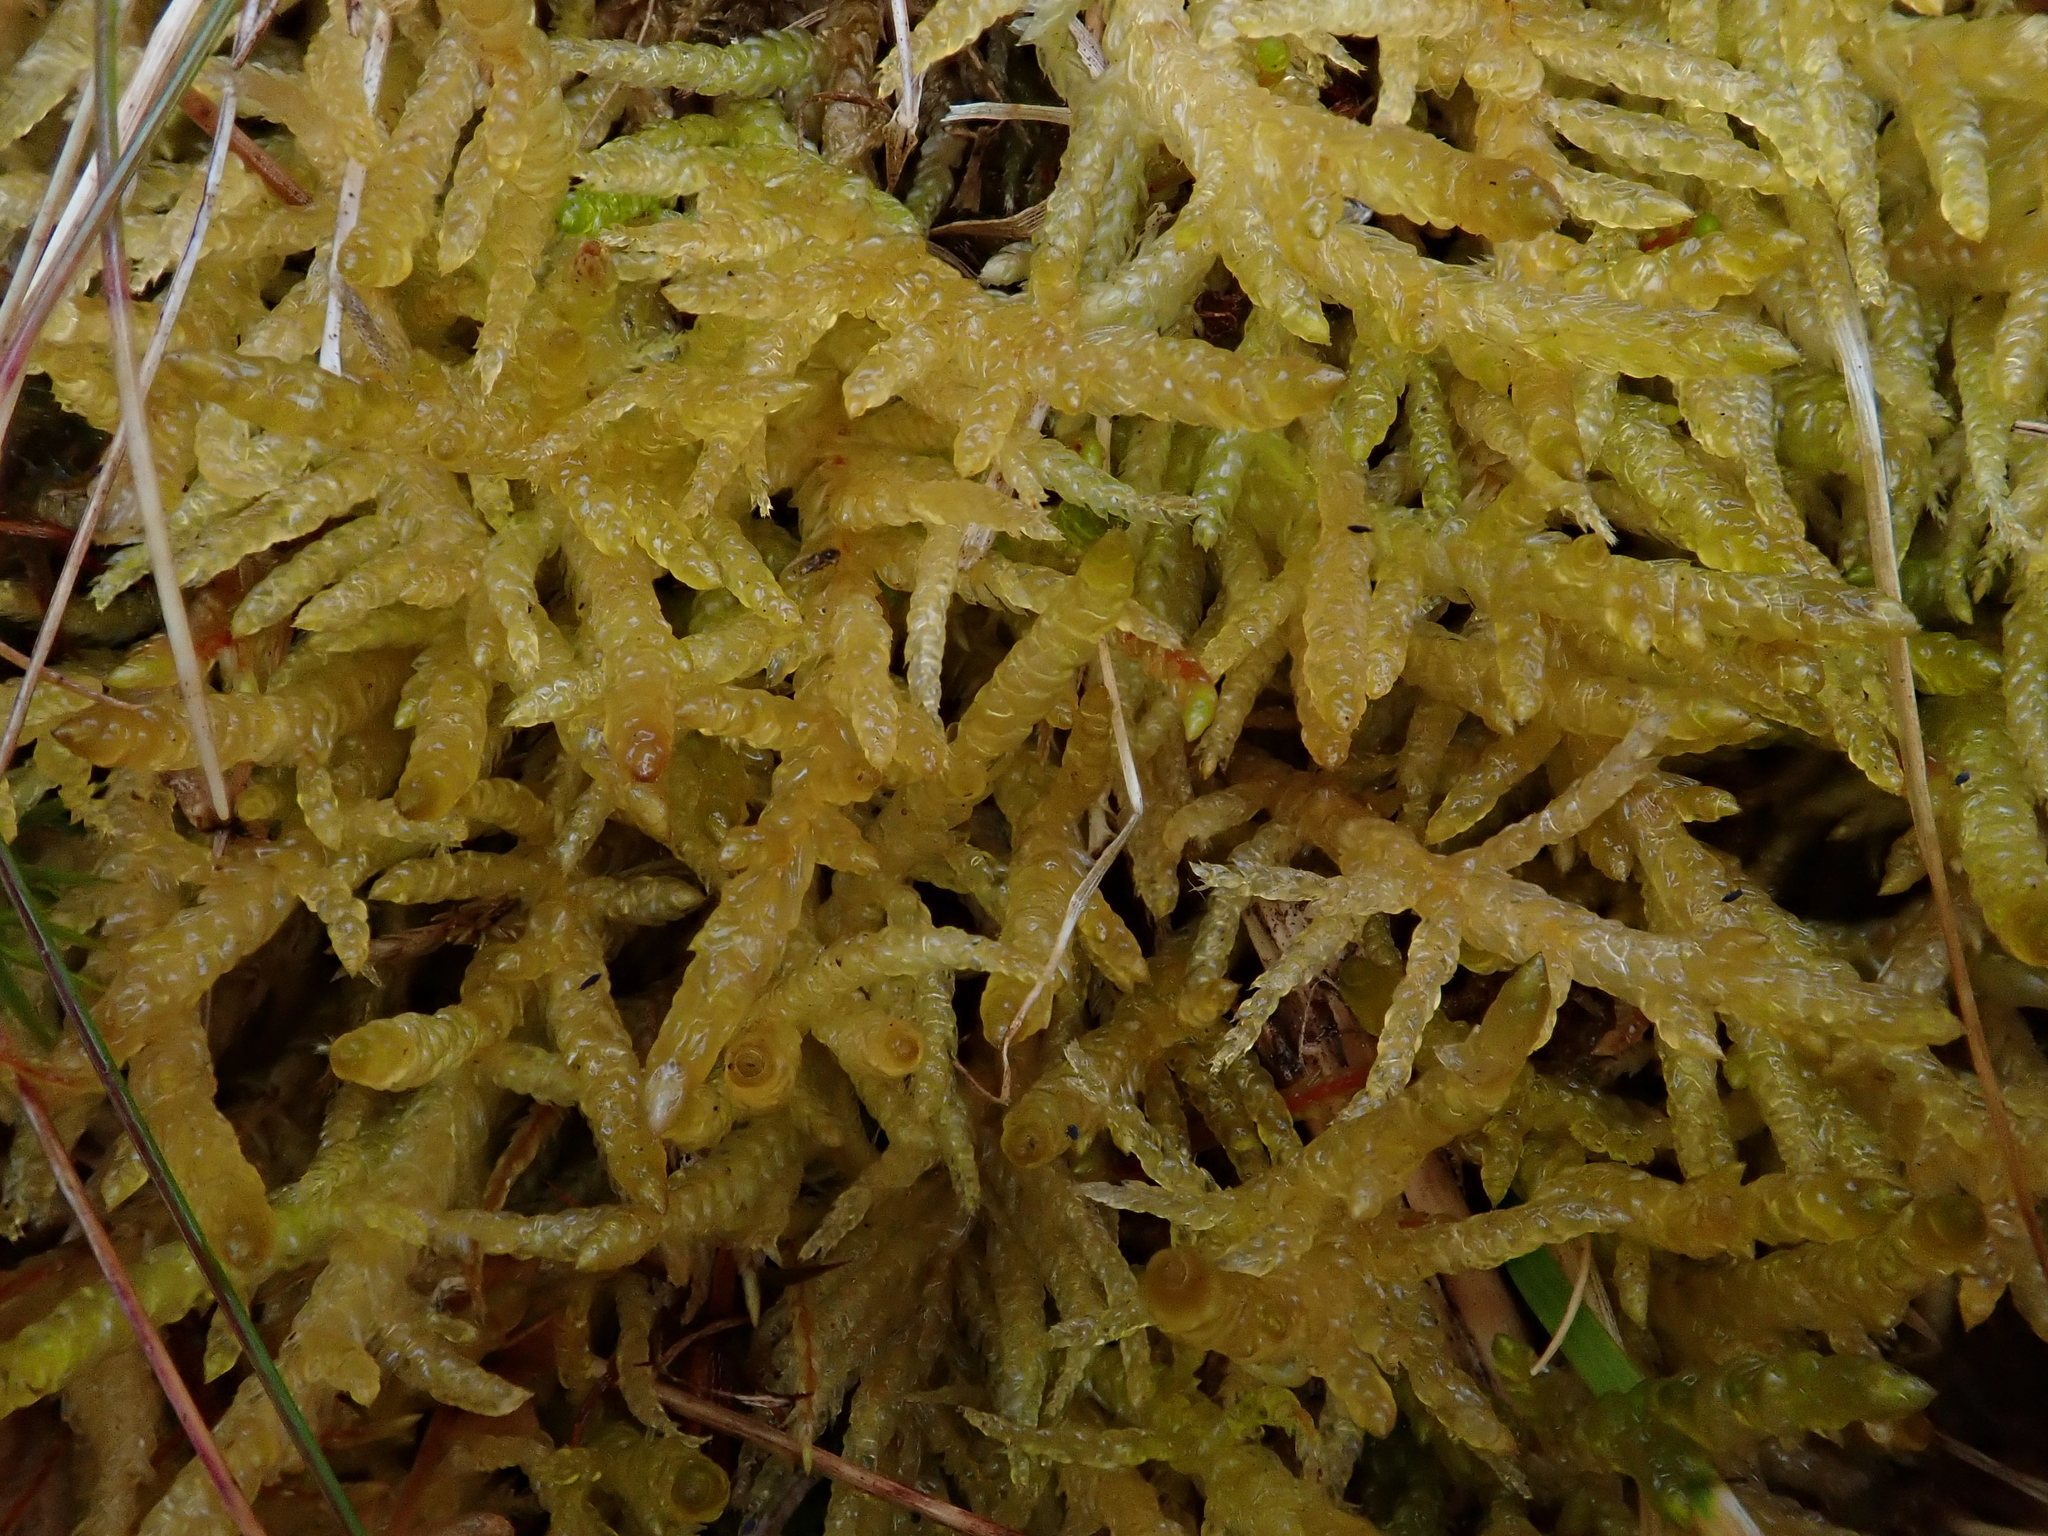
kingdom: Plantae
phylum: Bryophyta
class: Bryopsida
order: Hypnales
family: Brachytheciaceae
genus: Pseudoscleropodium
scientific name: Pseudoscleropodium purum
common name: Neat feather-moss
